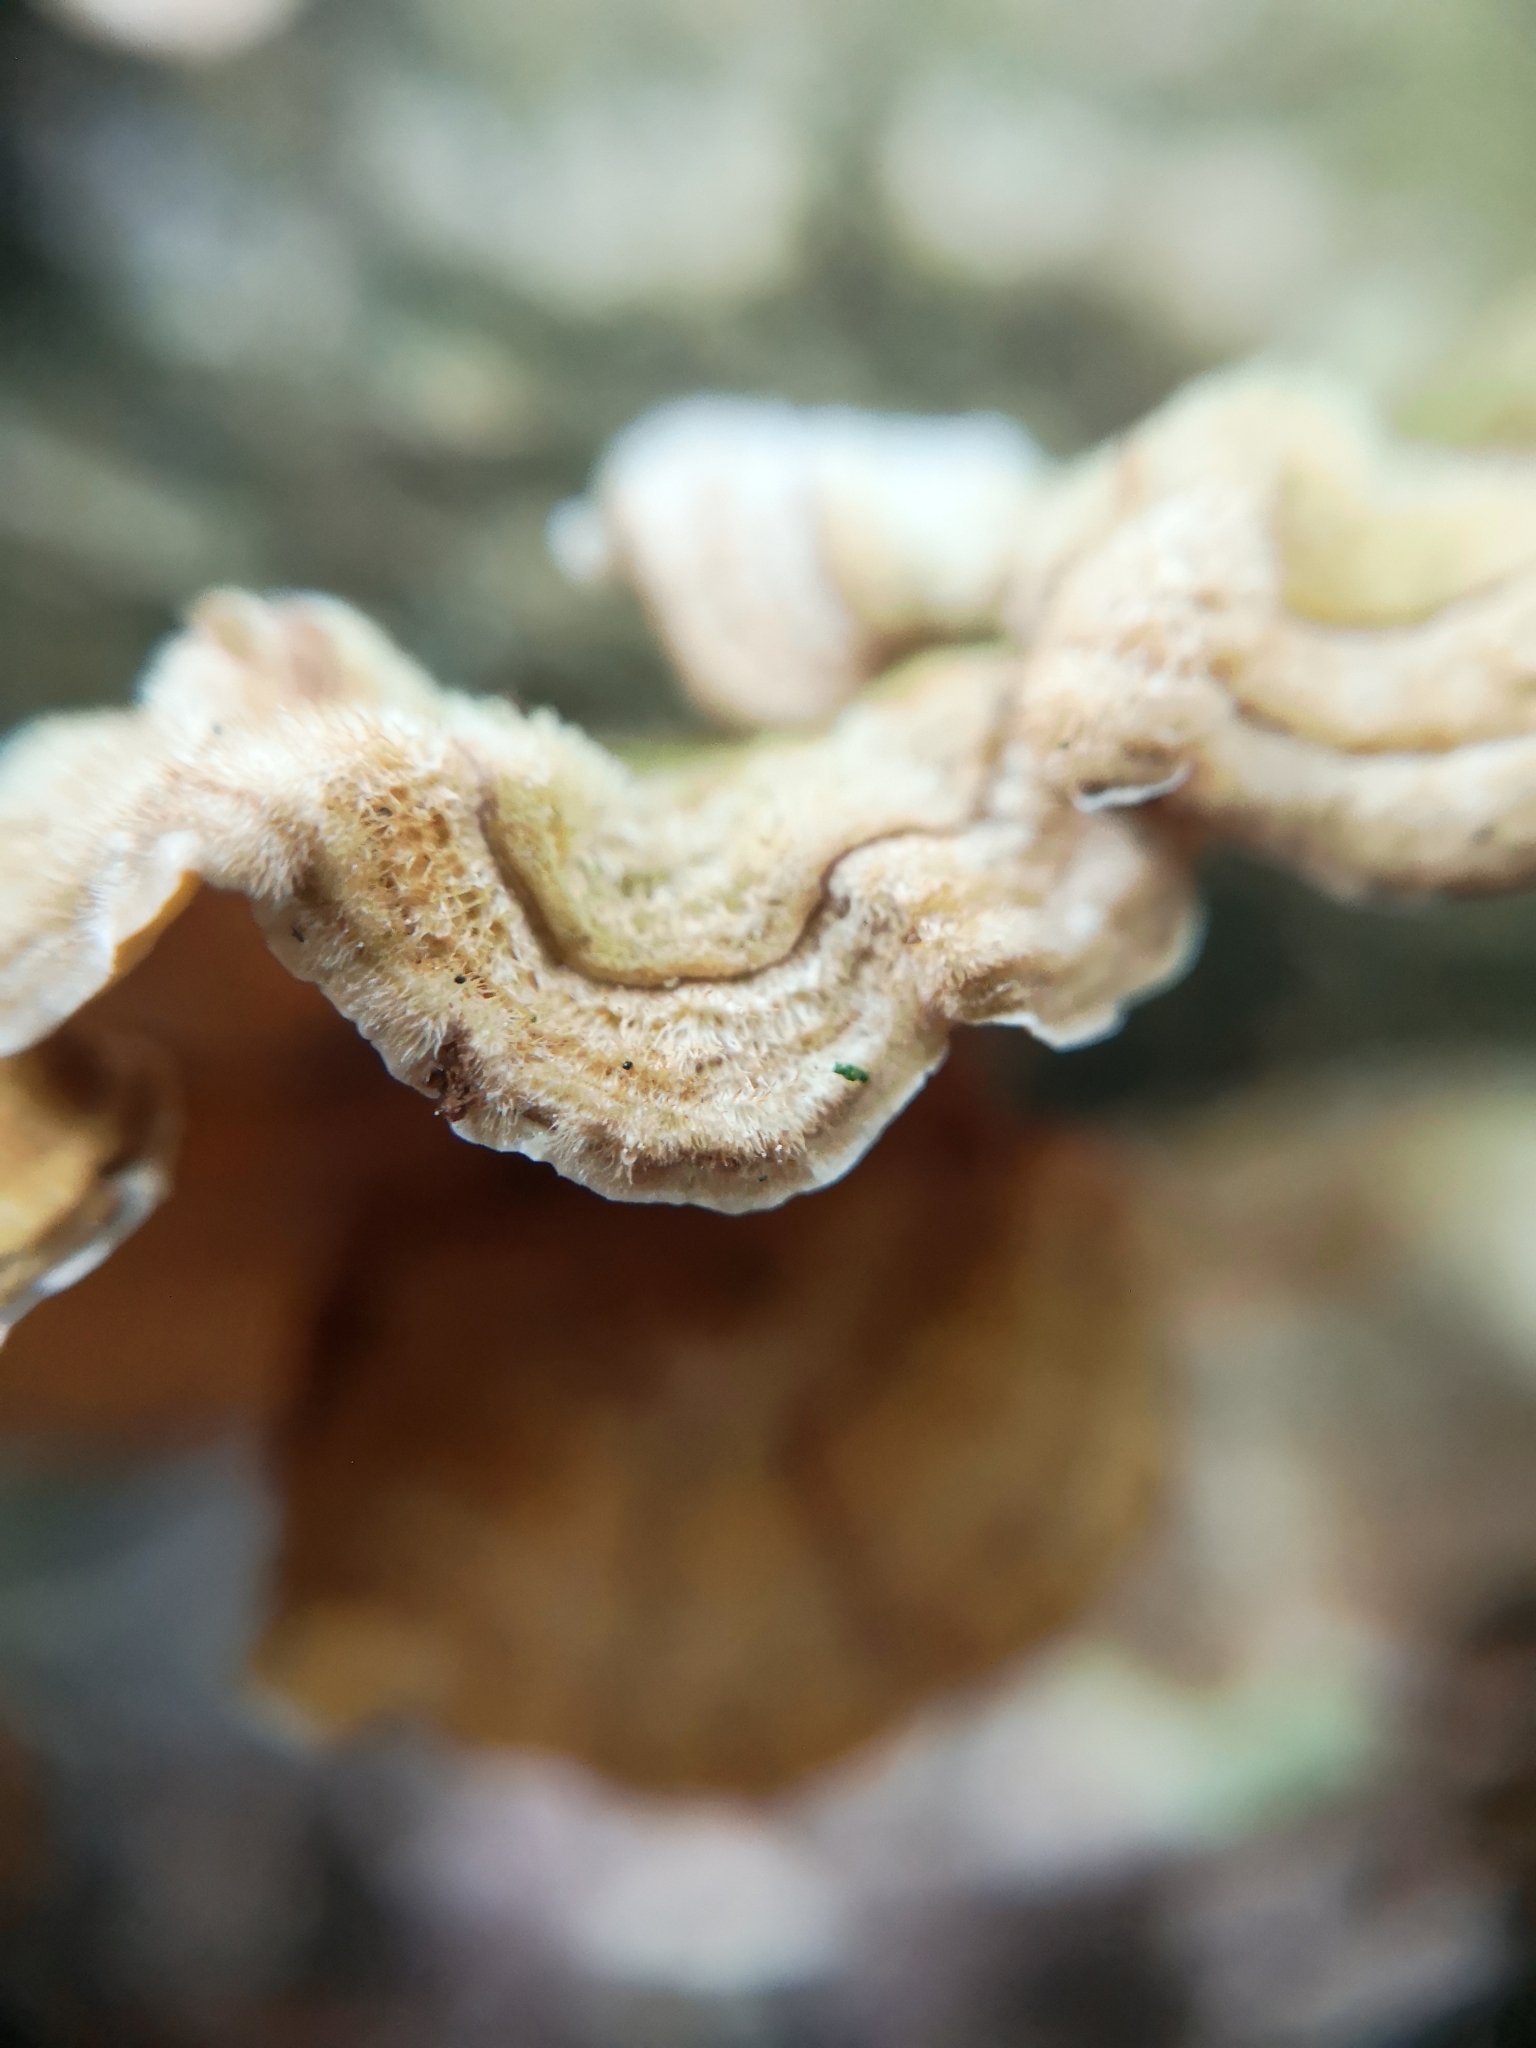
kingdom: Fungi
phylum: Basidiomycota
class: Agaricomycetes
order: Russulales
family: Stereaceae
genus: Stereum
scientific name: Stereum hirsutum
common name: Hairy curtain crust
